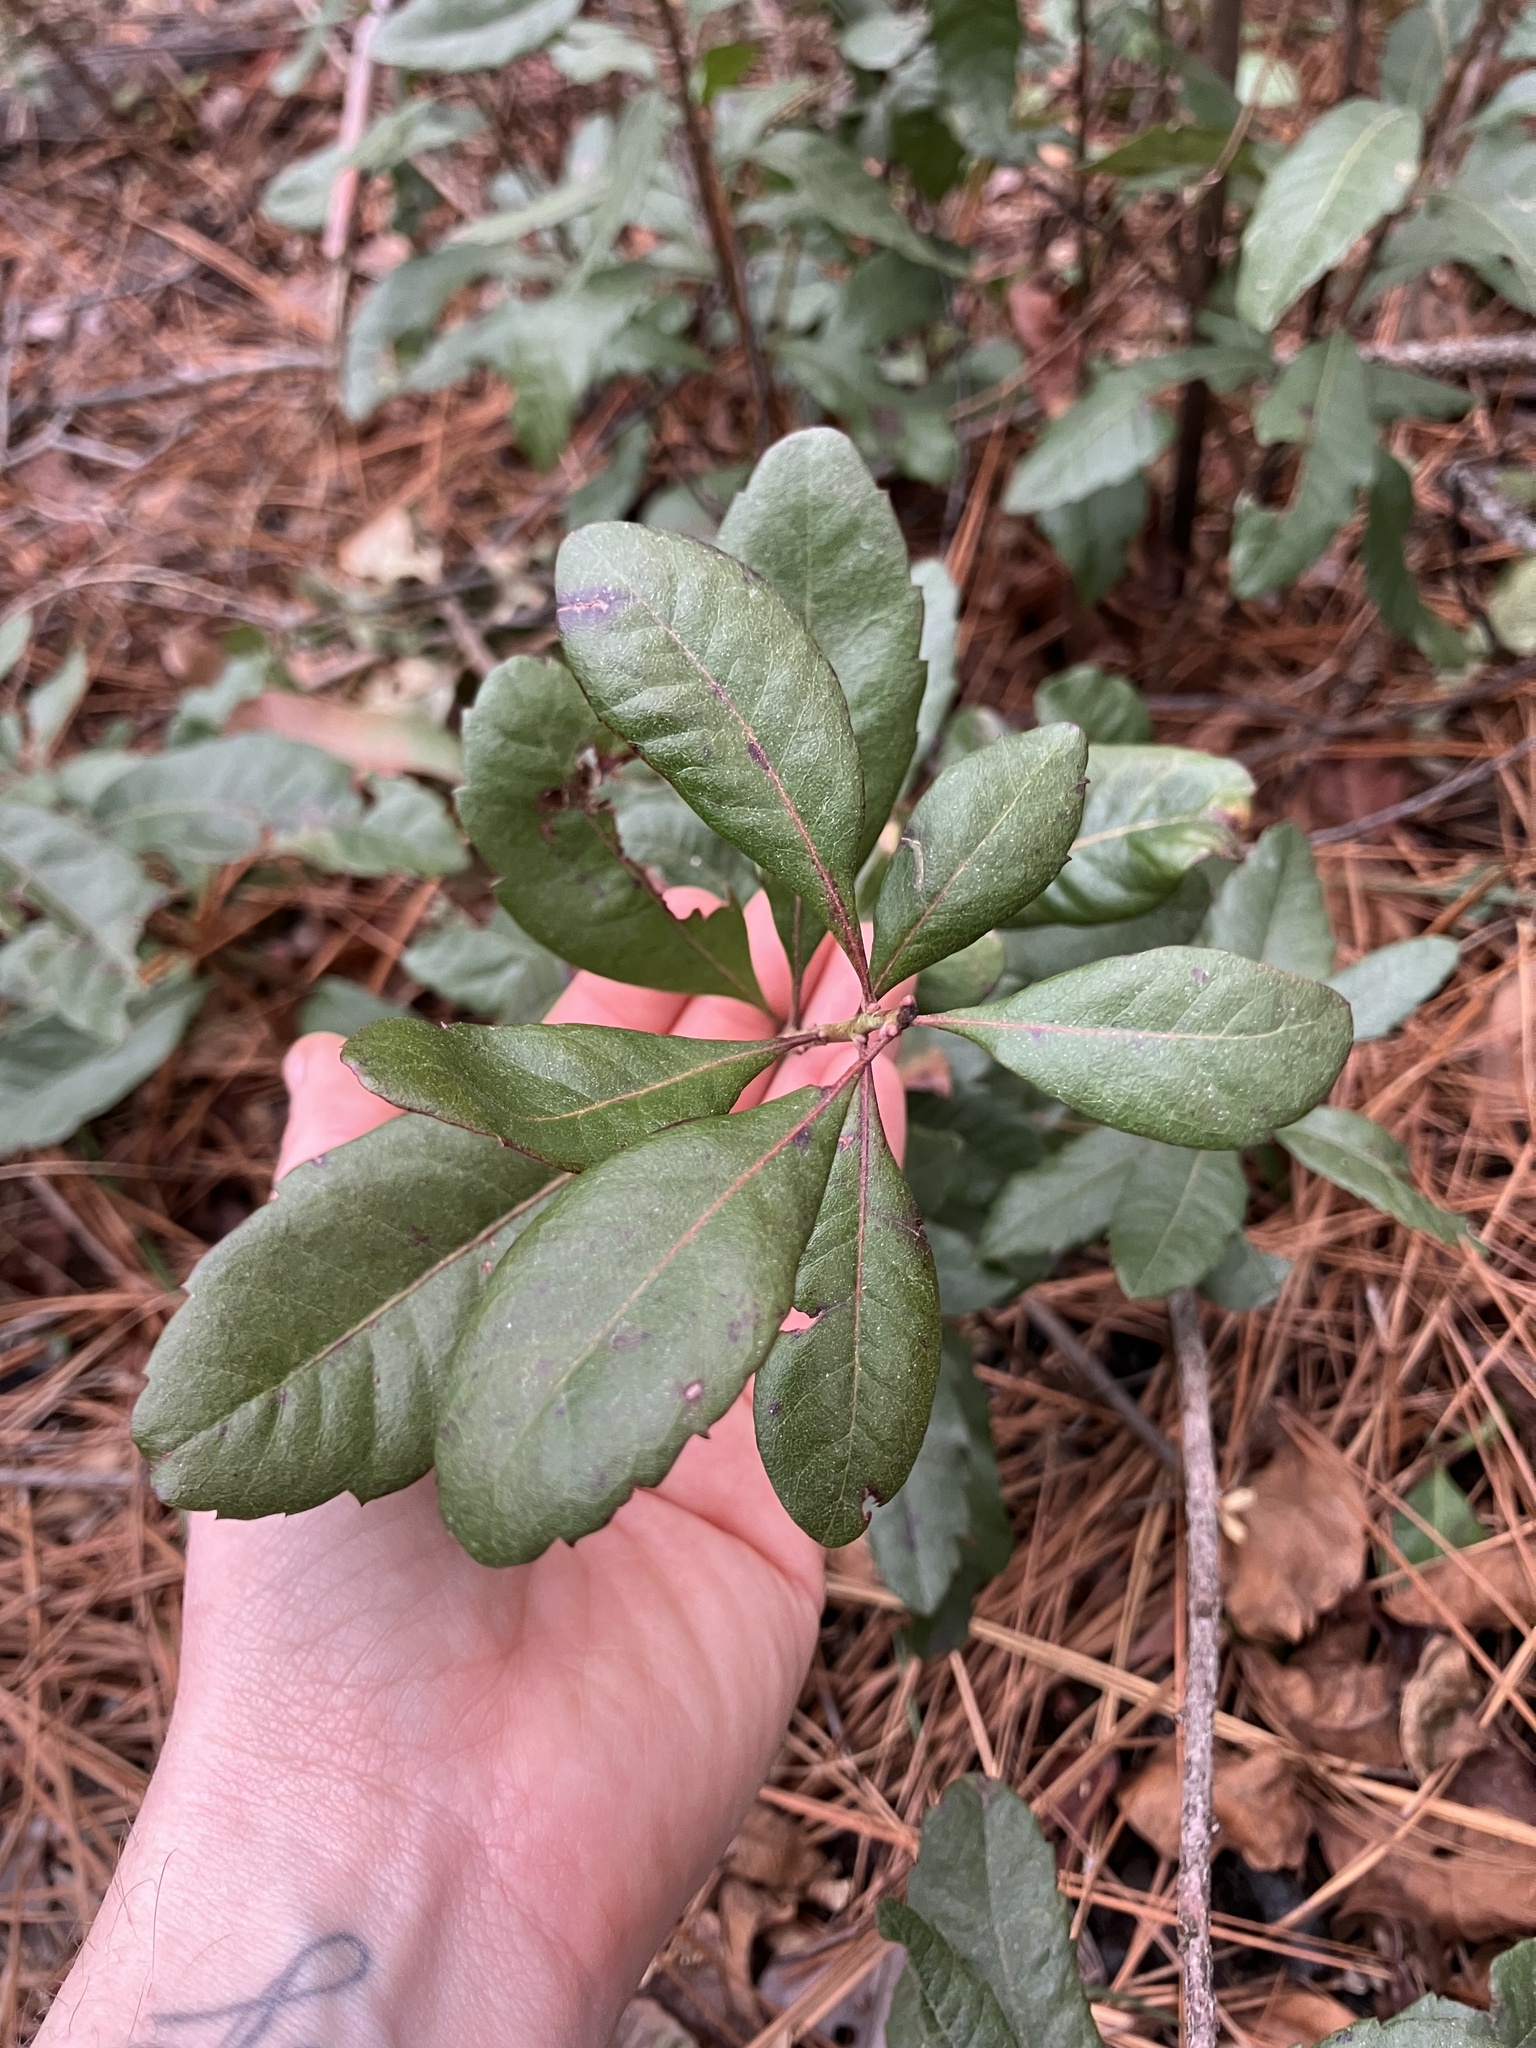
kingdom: Plantae
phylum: Tracheophyta
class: Magnoliopsida
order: Fagales
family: Myricaceae
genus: Morella
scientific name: Morella caroliniensis
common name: Evergreen bayberry
